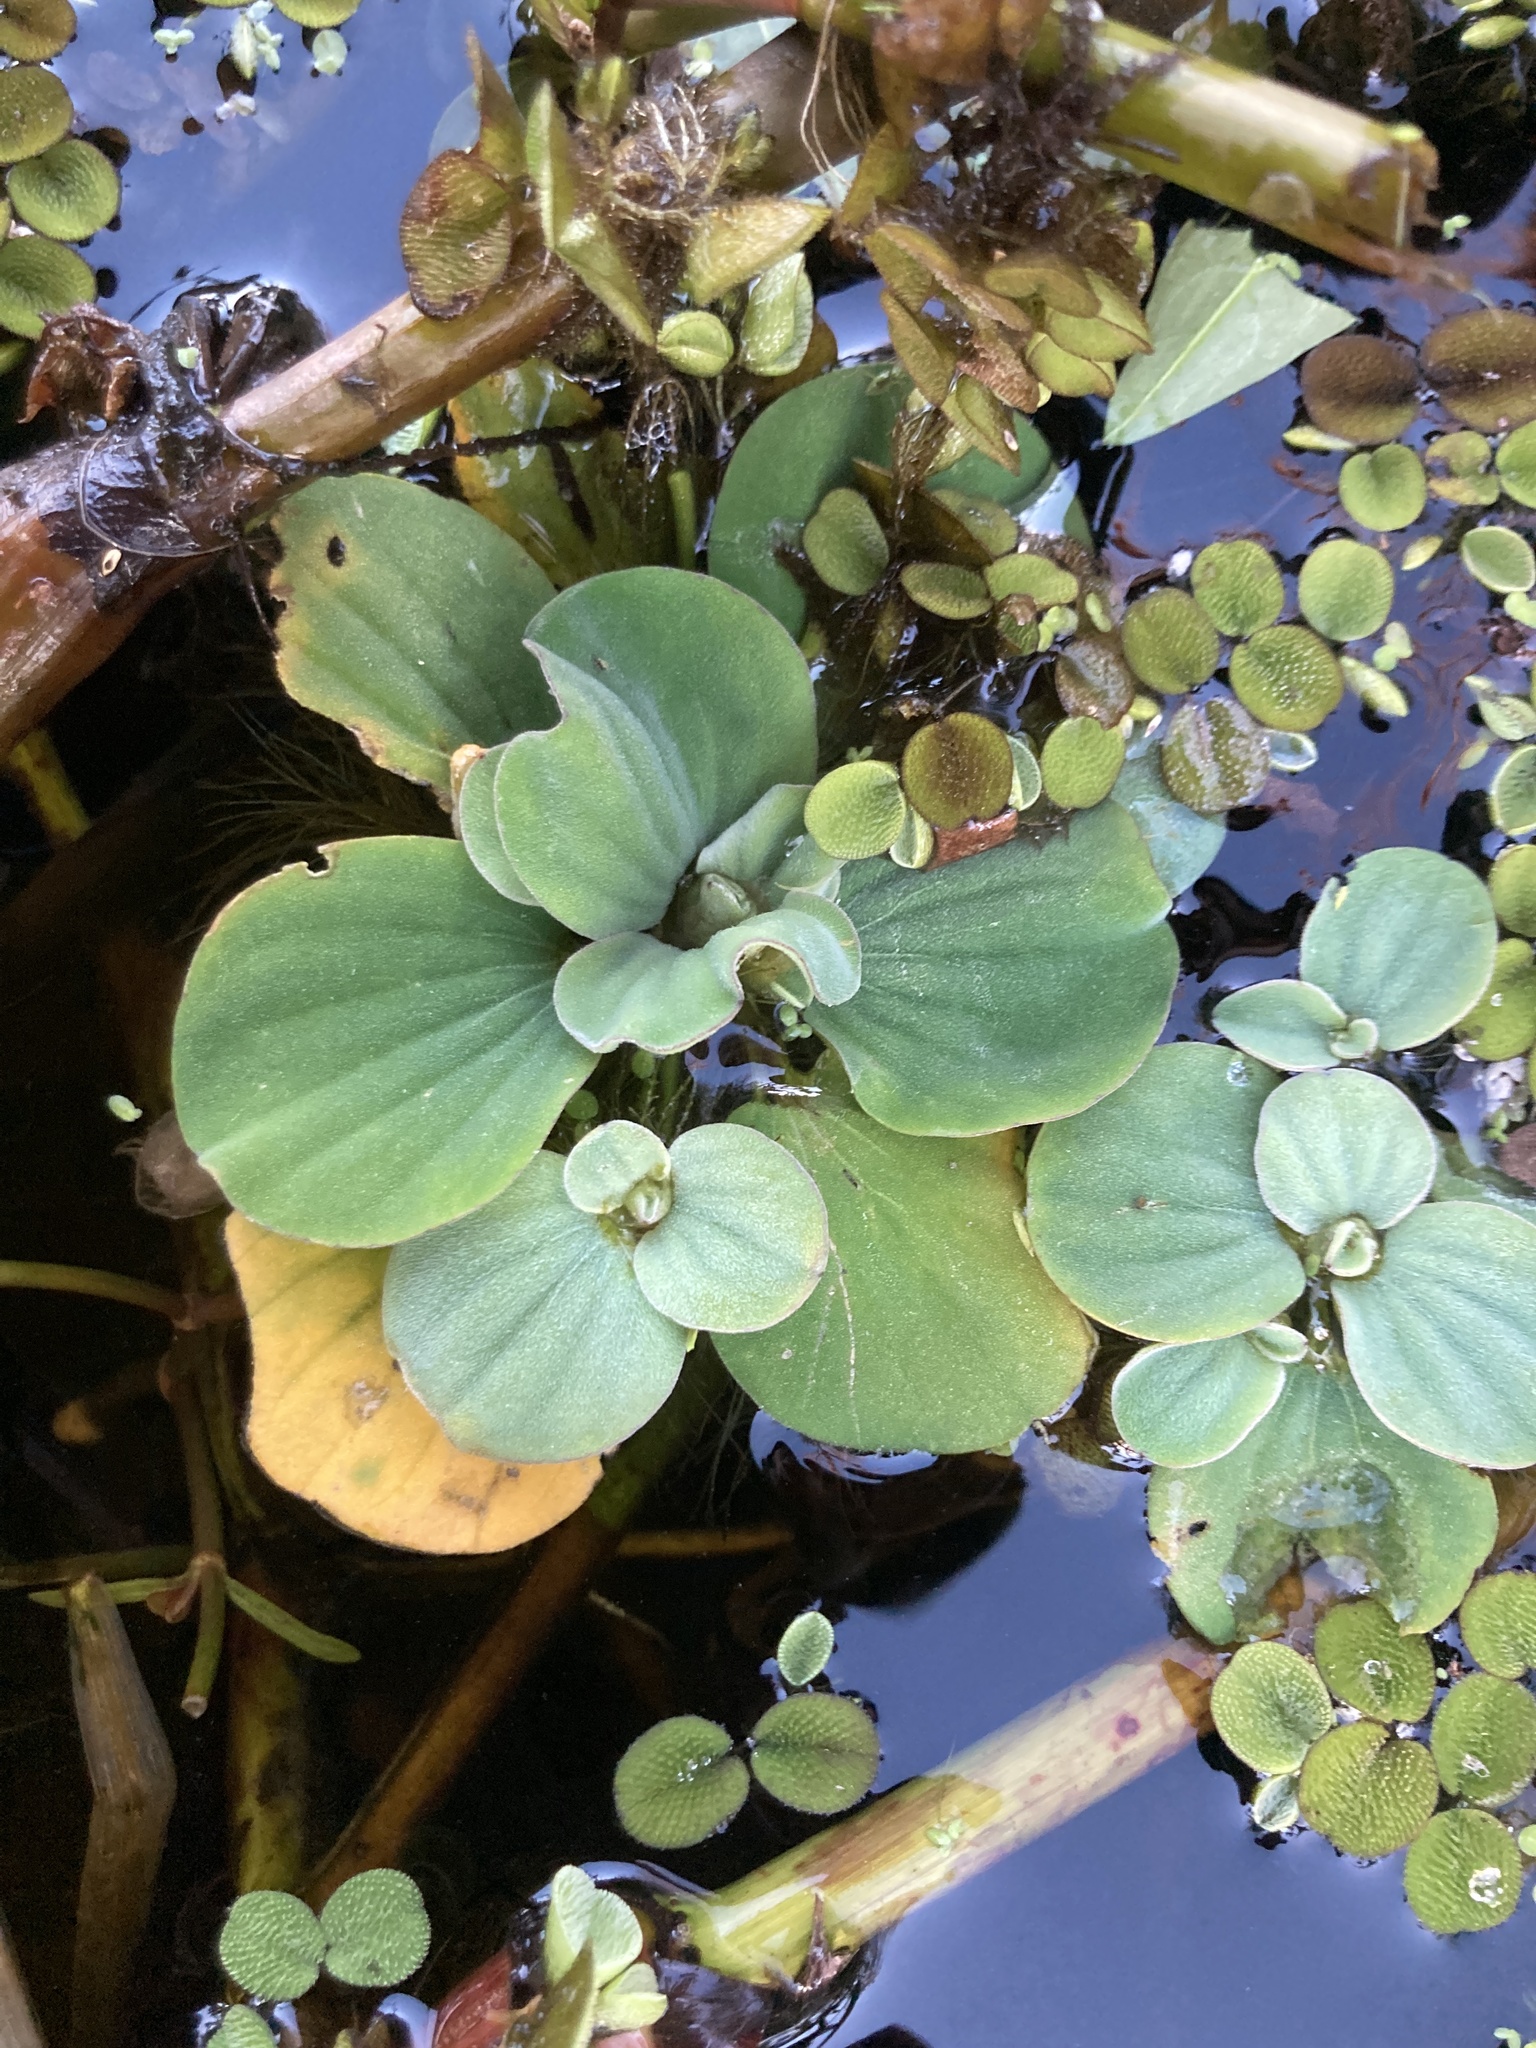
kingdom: Plantae
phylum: Tracheophyta
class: Liliopsida
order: Alismatales
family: Araceae
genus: Pistia
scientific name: Pistia stratiotes
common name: Water lettuce
